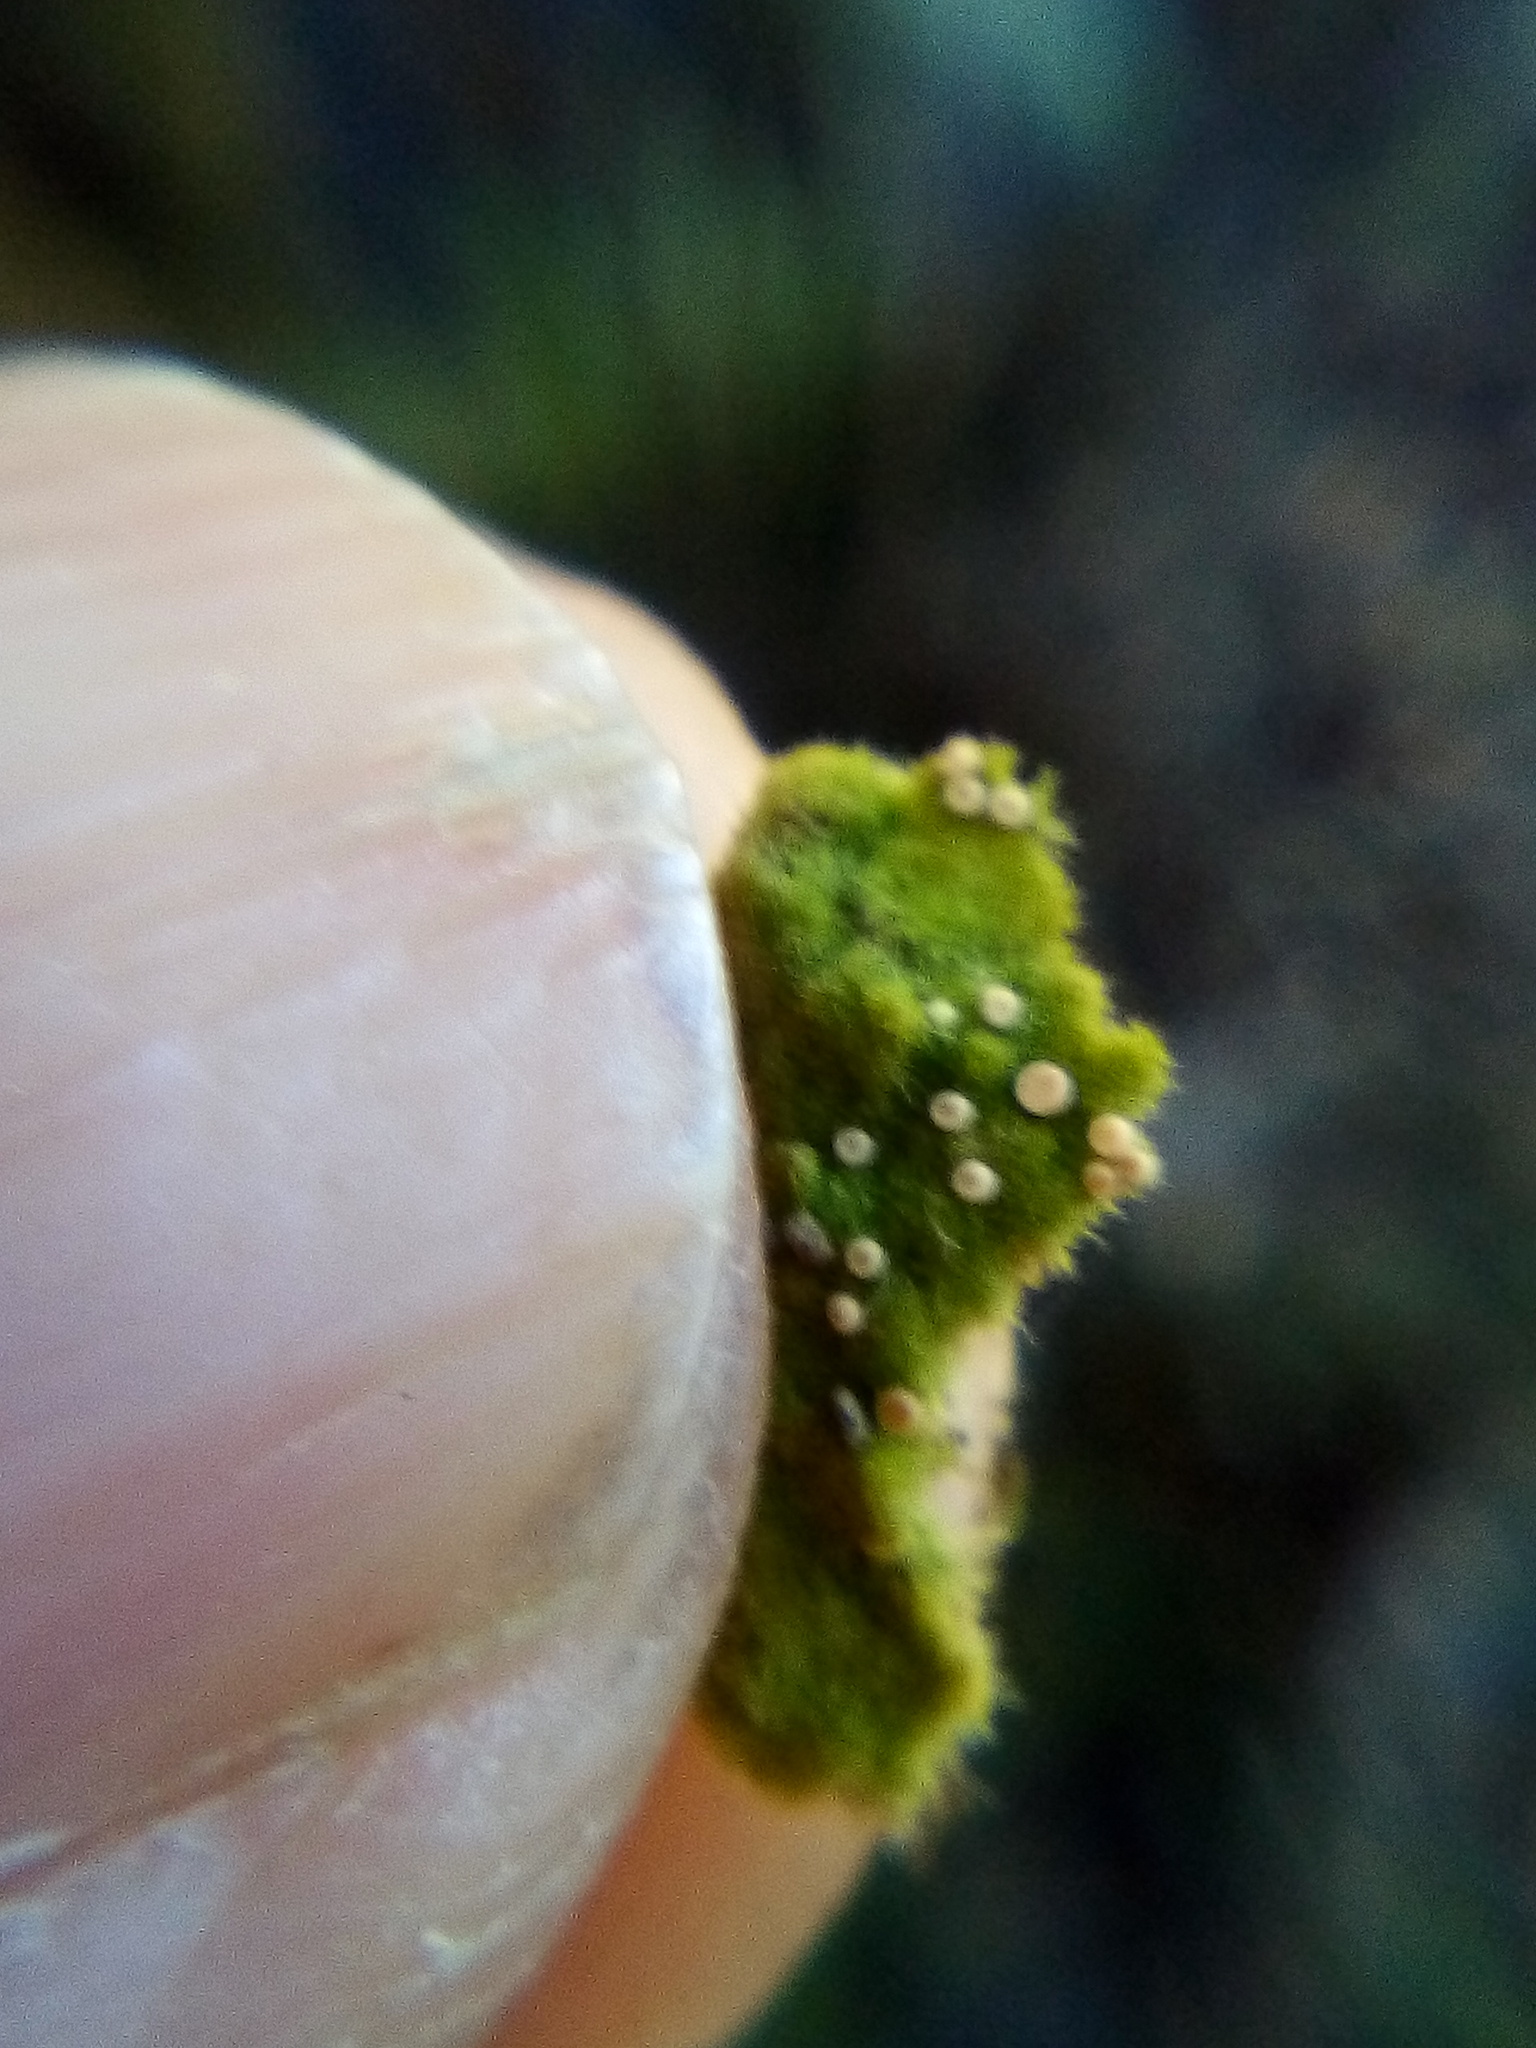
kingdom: Fungi
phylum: Ascomycota
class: Lecanoromycetes
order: Ostropales
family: Coenogoniaceae
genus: Coenogonium
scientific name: Coenogonium implexum
